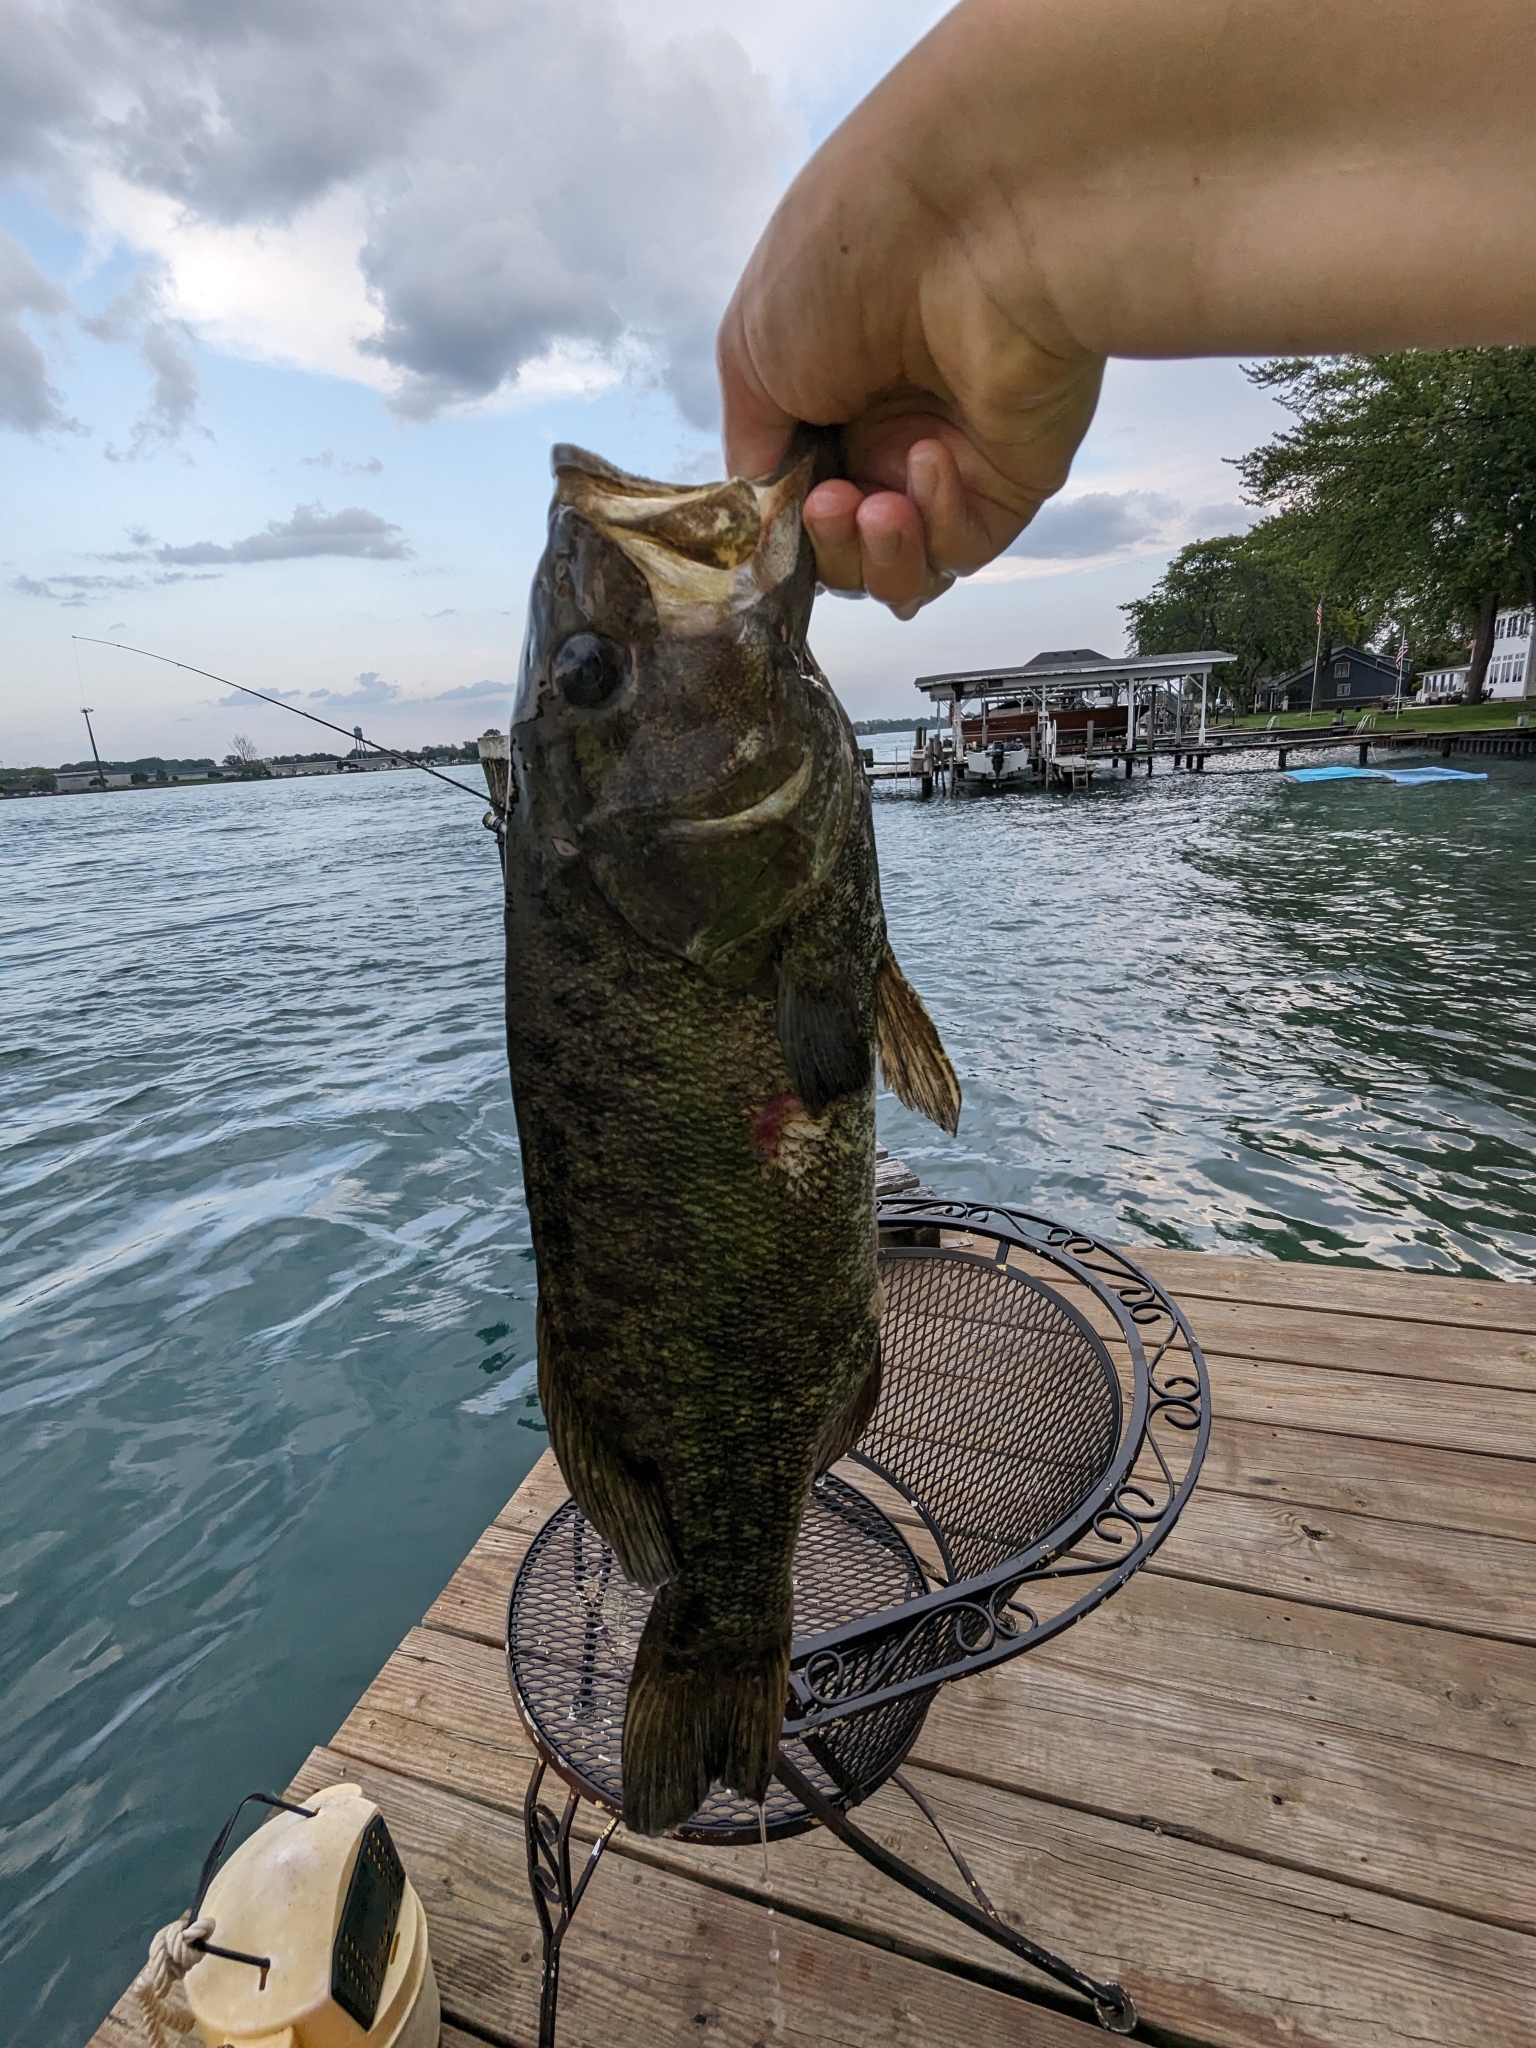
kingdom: Animalia
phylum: Chordata
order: Perciformes
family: Centrarchidae
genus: Micropterus
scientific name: Micropterus dolomieu
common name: Smallmouth bass
